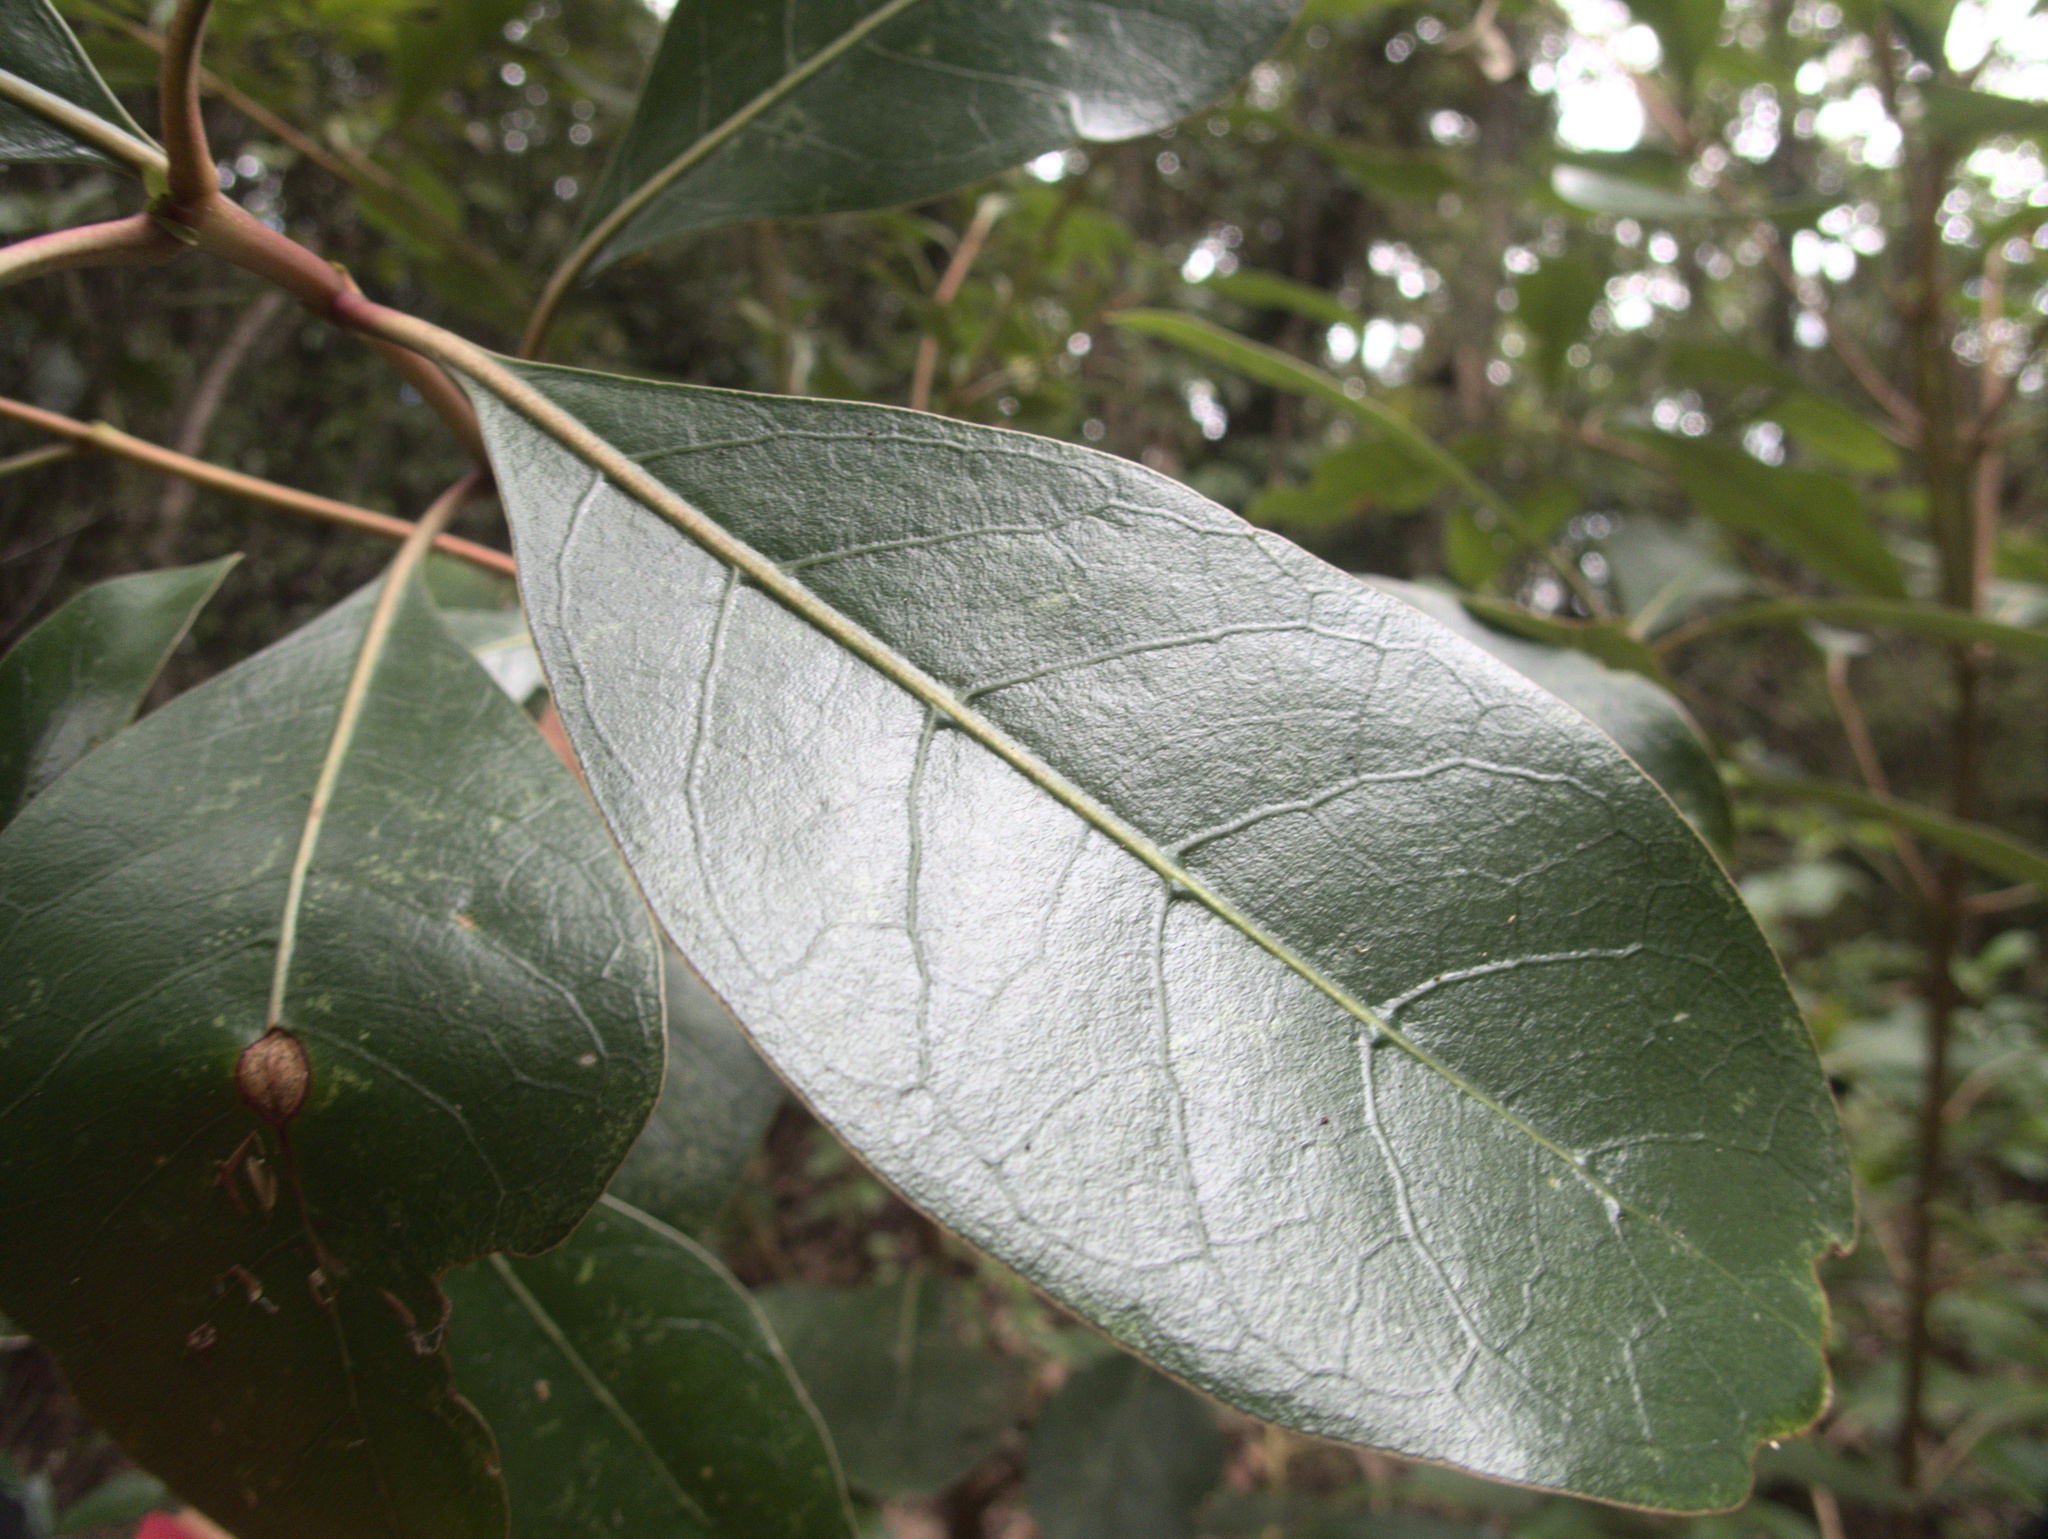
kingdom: Plantae
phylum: Tracheophyta
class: Magnoliopsida
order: Gentianales
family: Rubiaceae
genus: Coprosma
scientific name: Coprosma lucida
